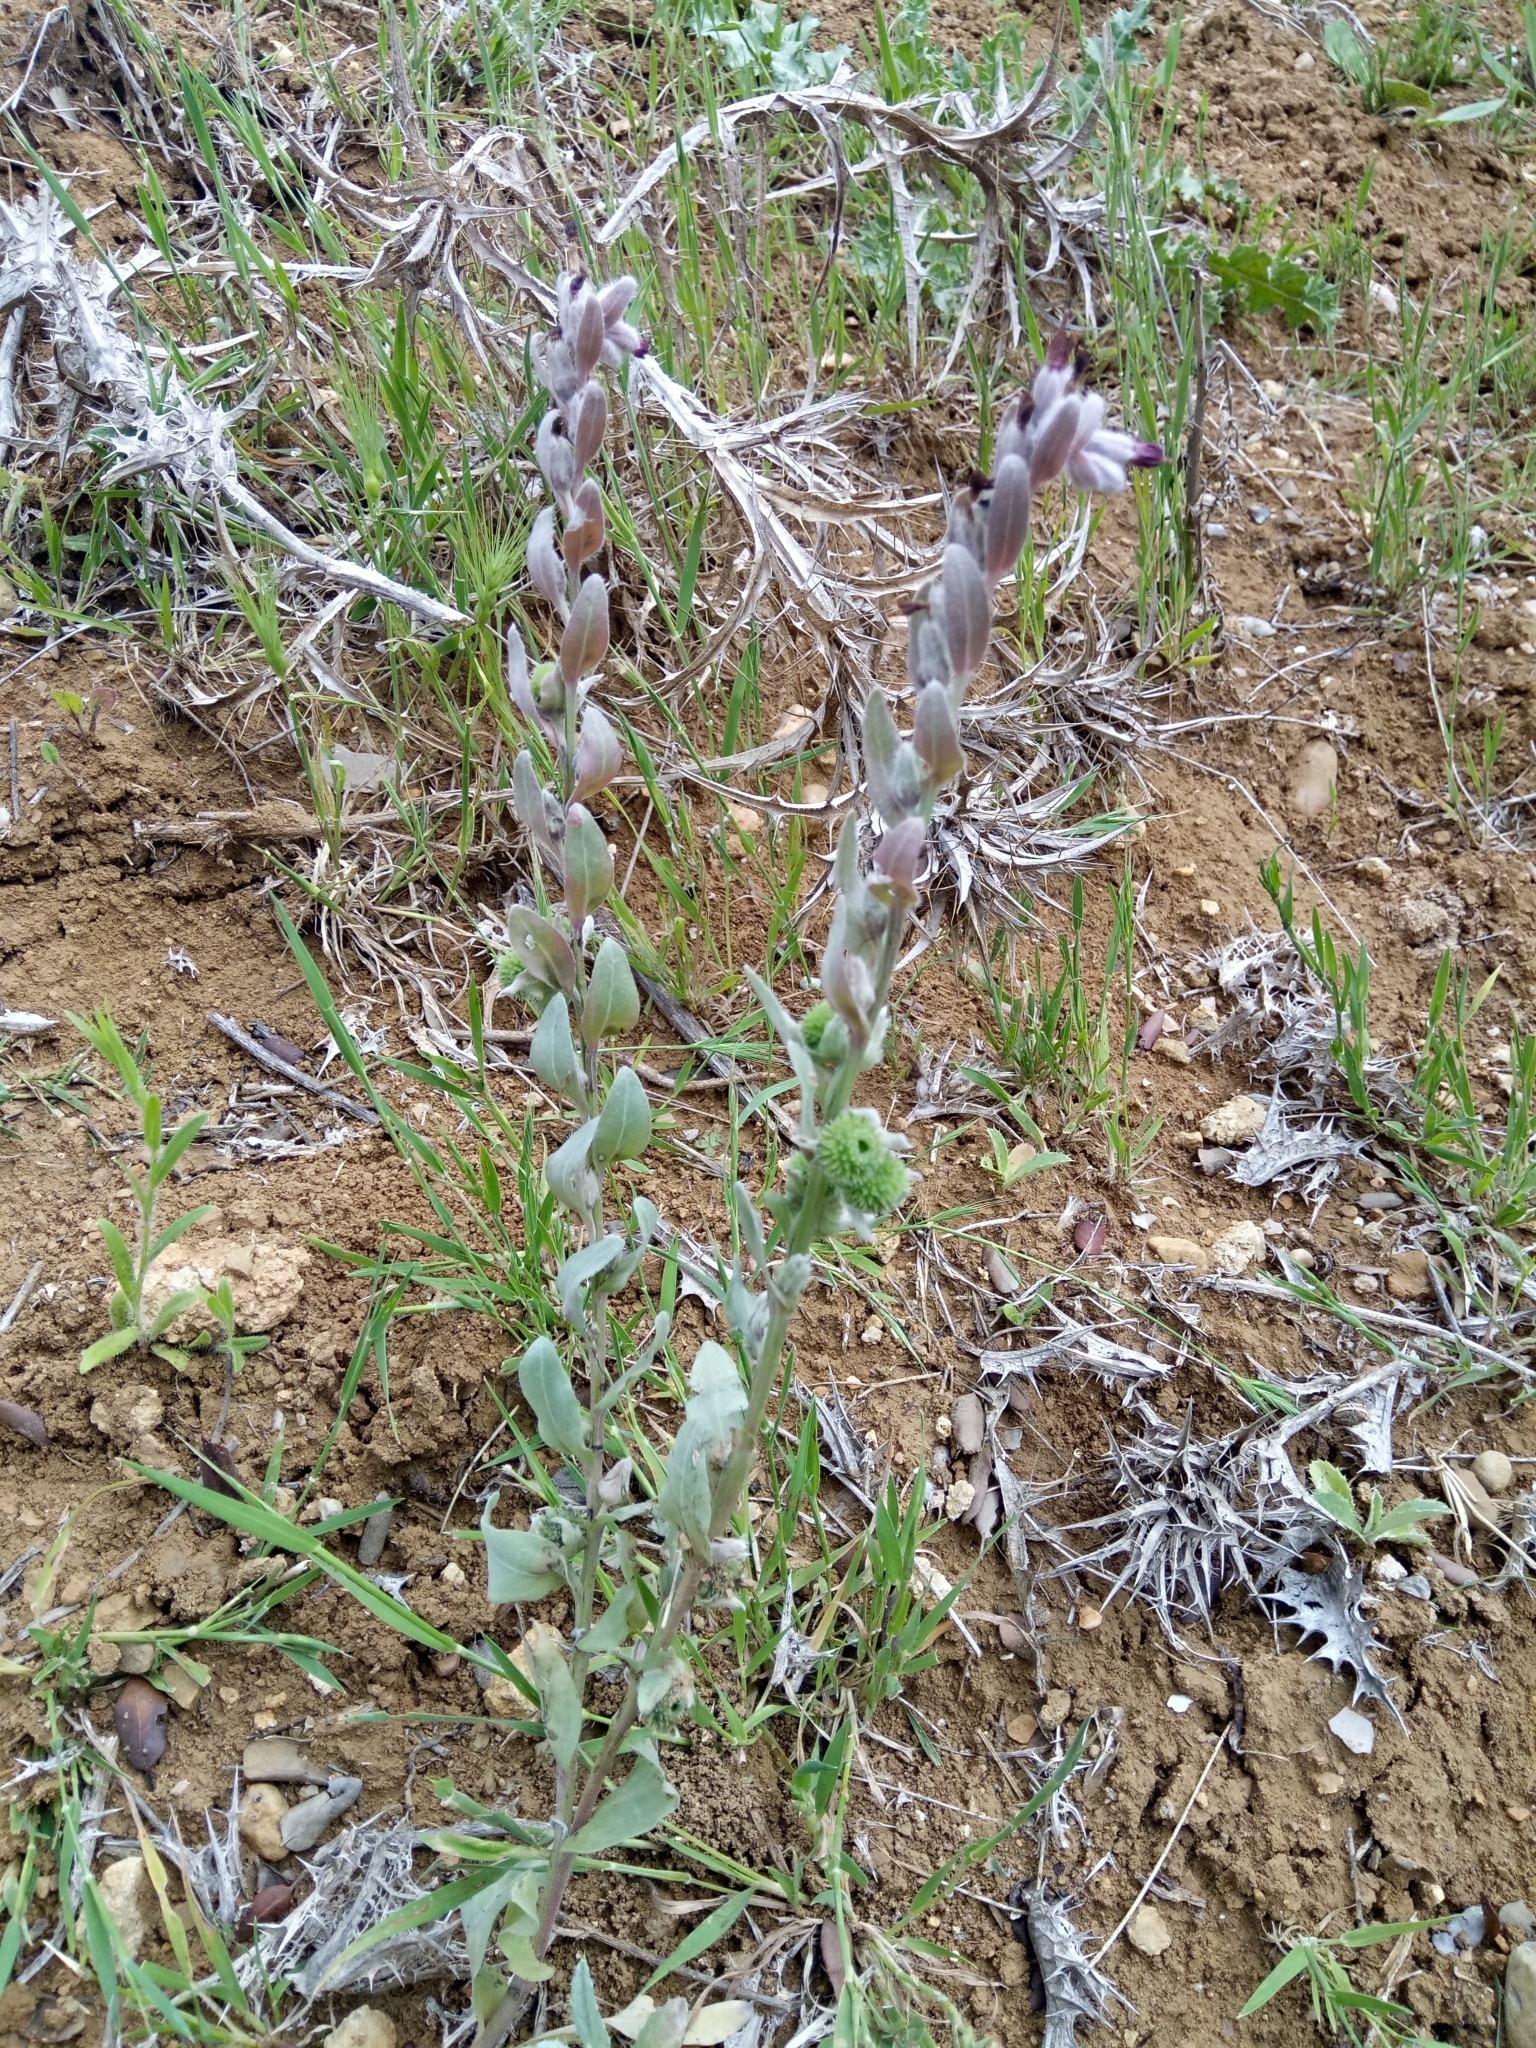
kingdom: Plantae
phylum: Tracheophyta
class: Magnoliopsida
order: Boraginales
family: Boraginaceae
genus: Pardoglossum
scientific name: Pardoglossum tubiflorum
